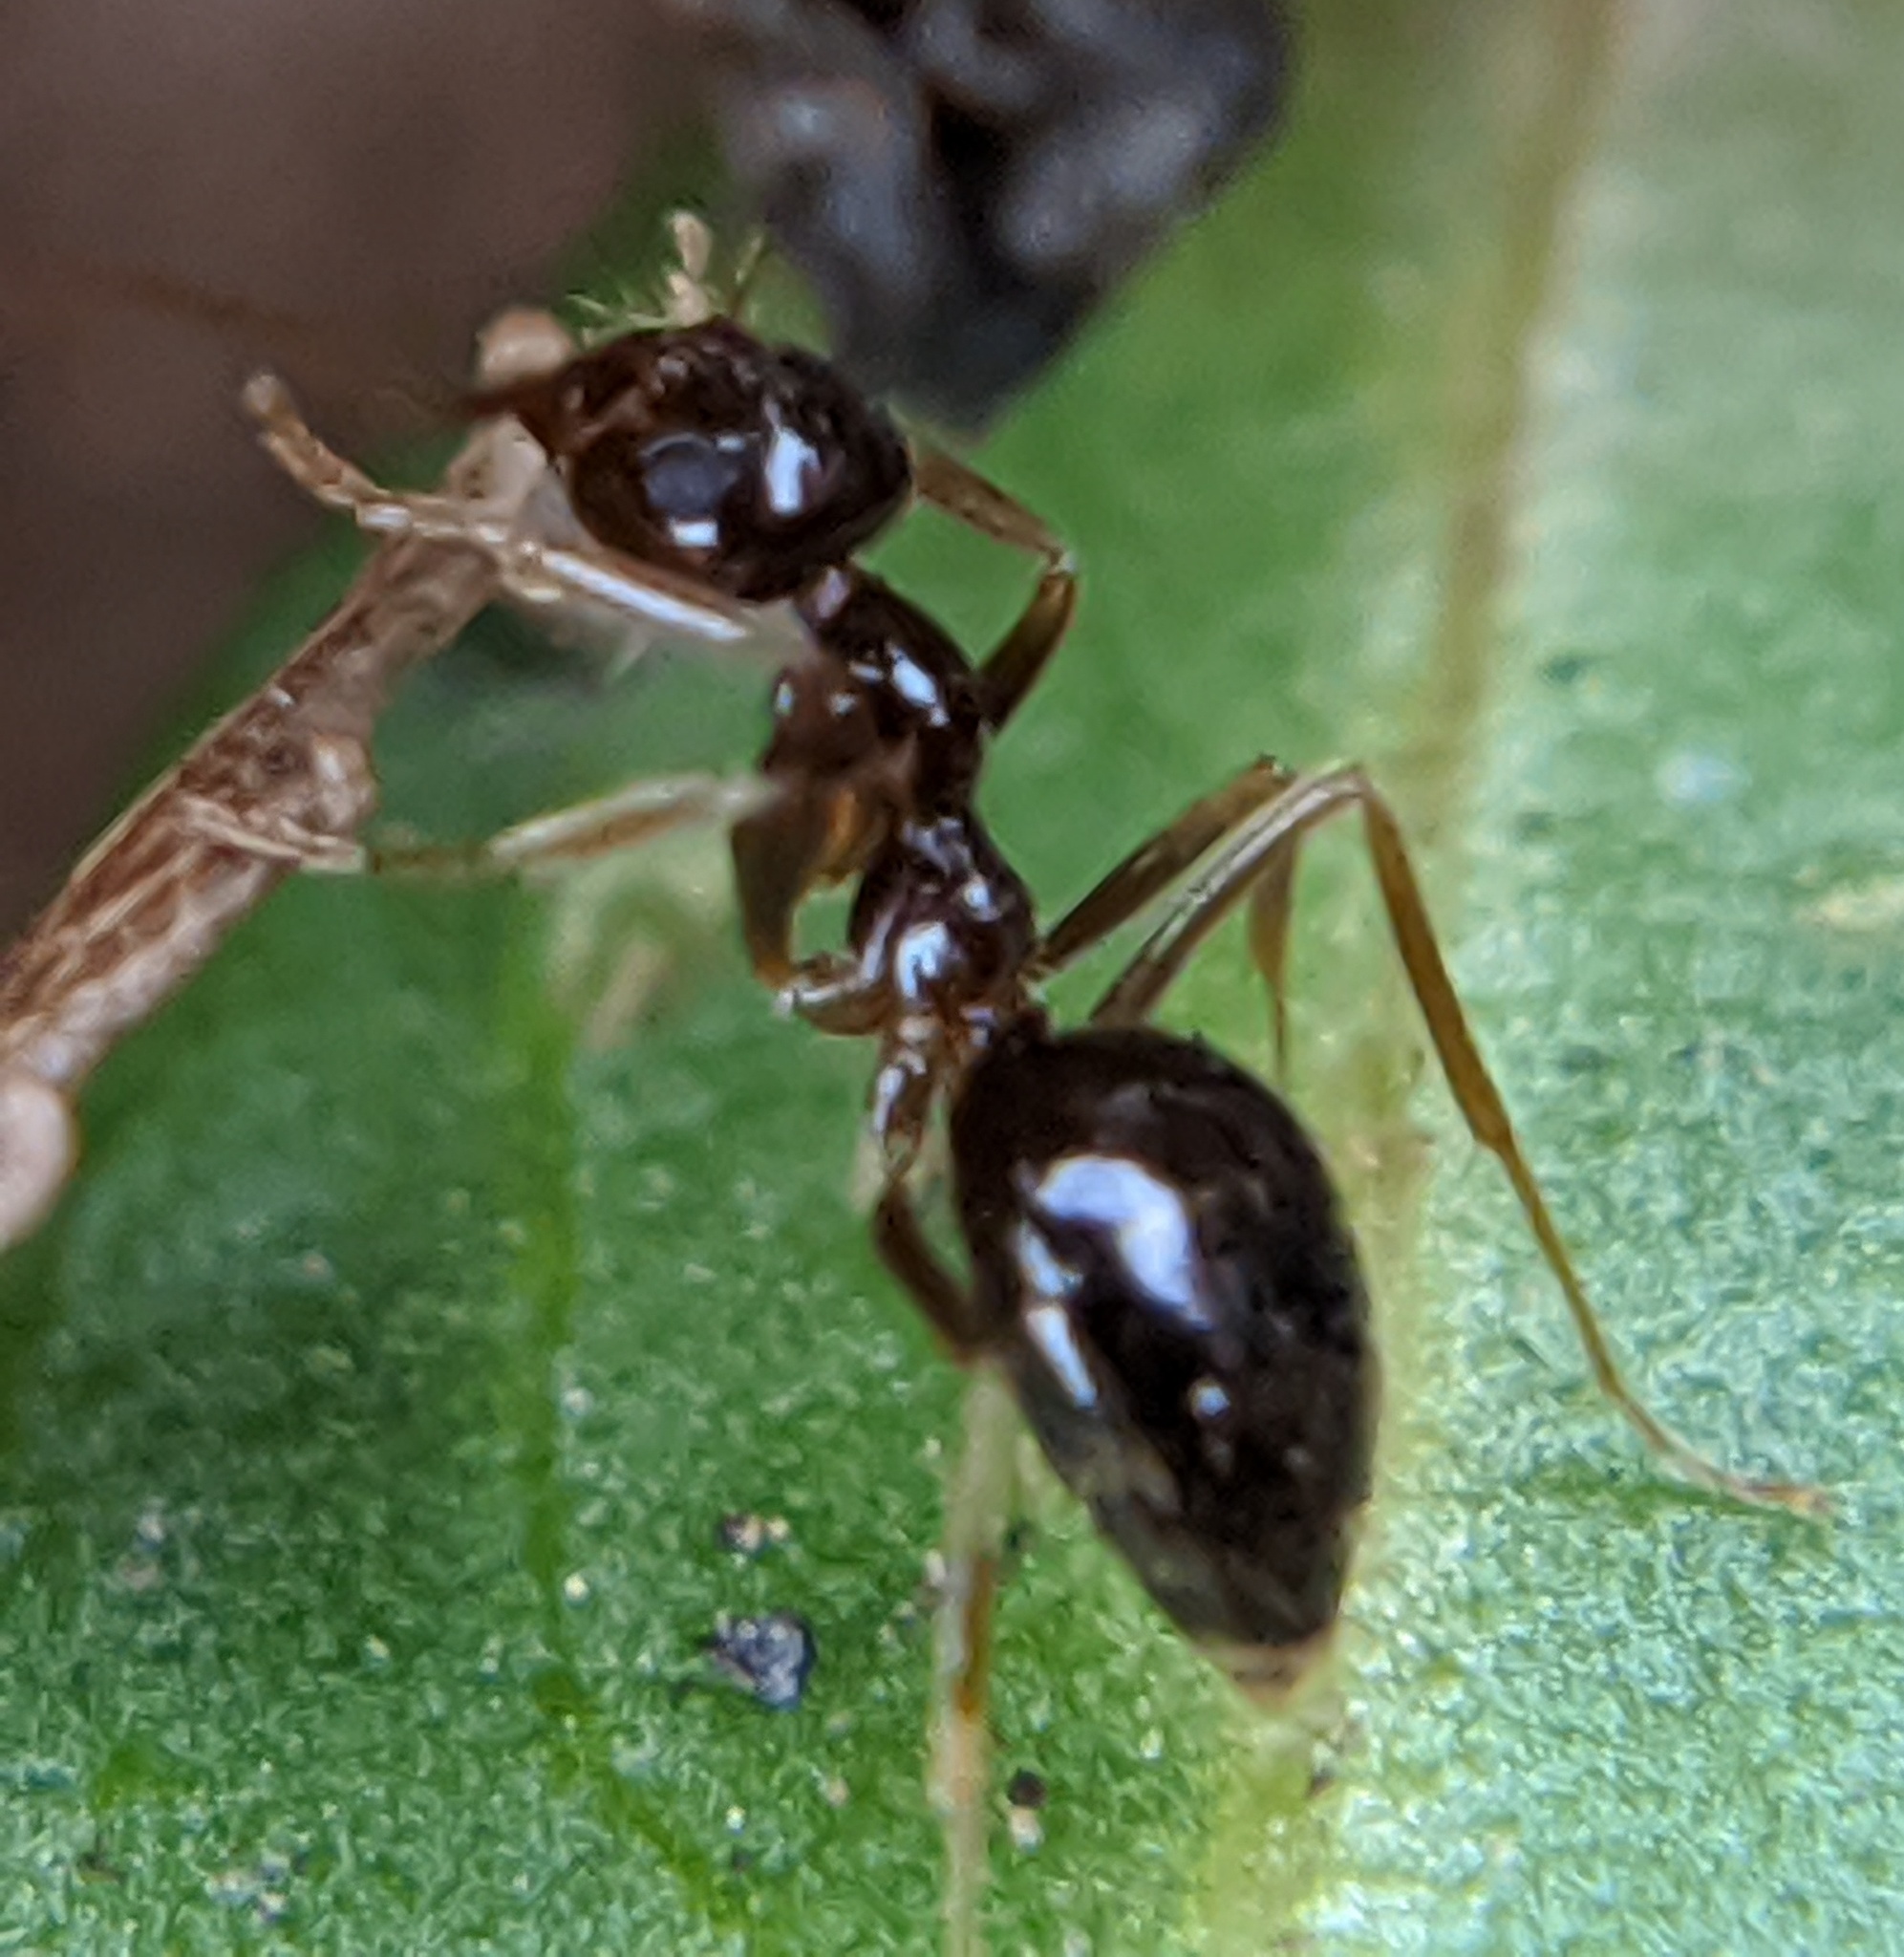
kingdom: Animalia
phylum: Arthropoda
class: Insecta
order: Hymenoptera
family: Formicidae
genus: Prenolepis
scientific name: Prenolepis imparis
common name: Small honey ant
